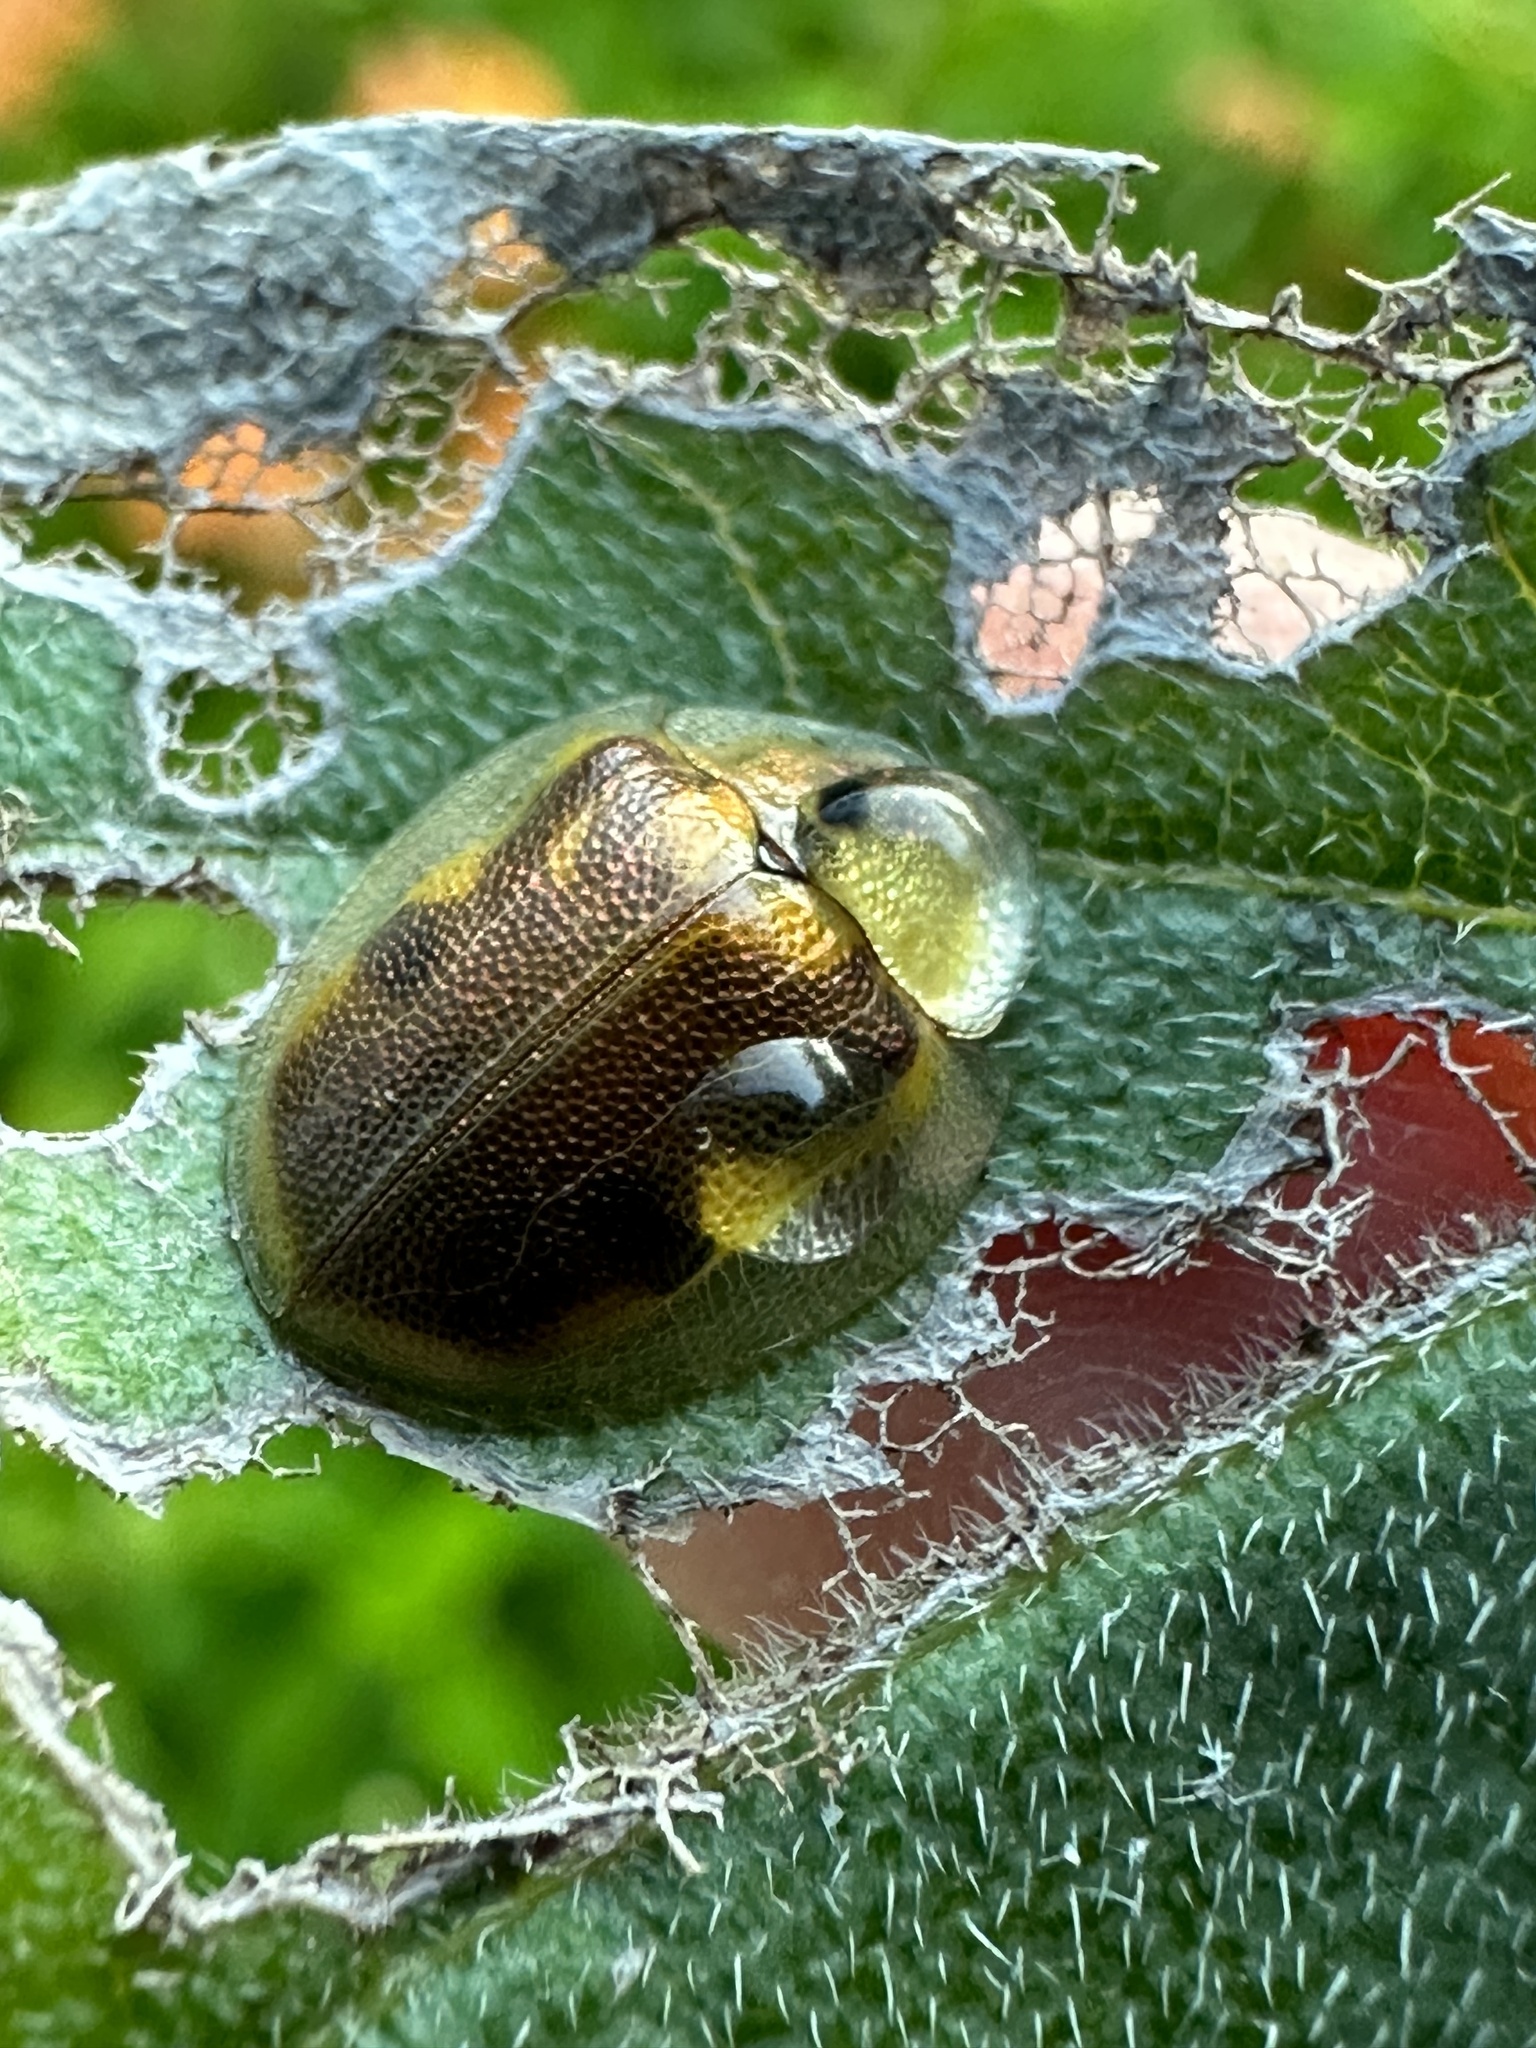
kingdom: Animalia
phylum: Arthropoda
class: Insecta
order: Coleoptera
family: Chrysomelidae
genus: Eurypepla
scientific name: Eurypepla calochroma
